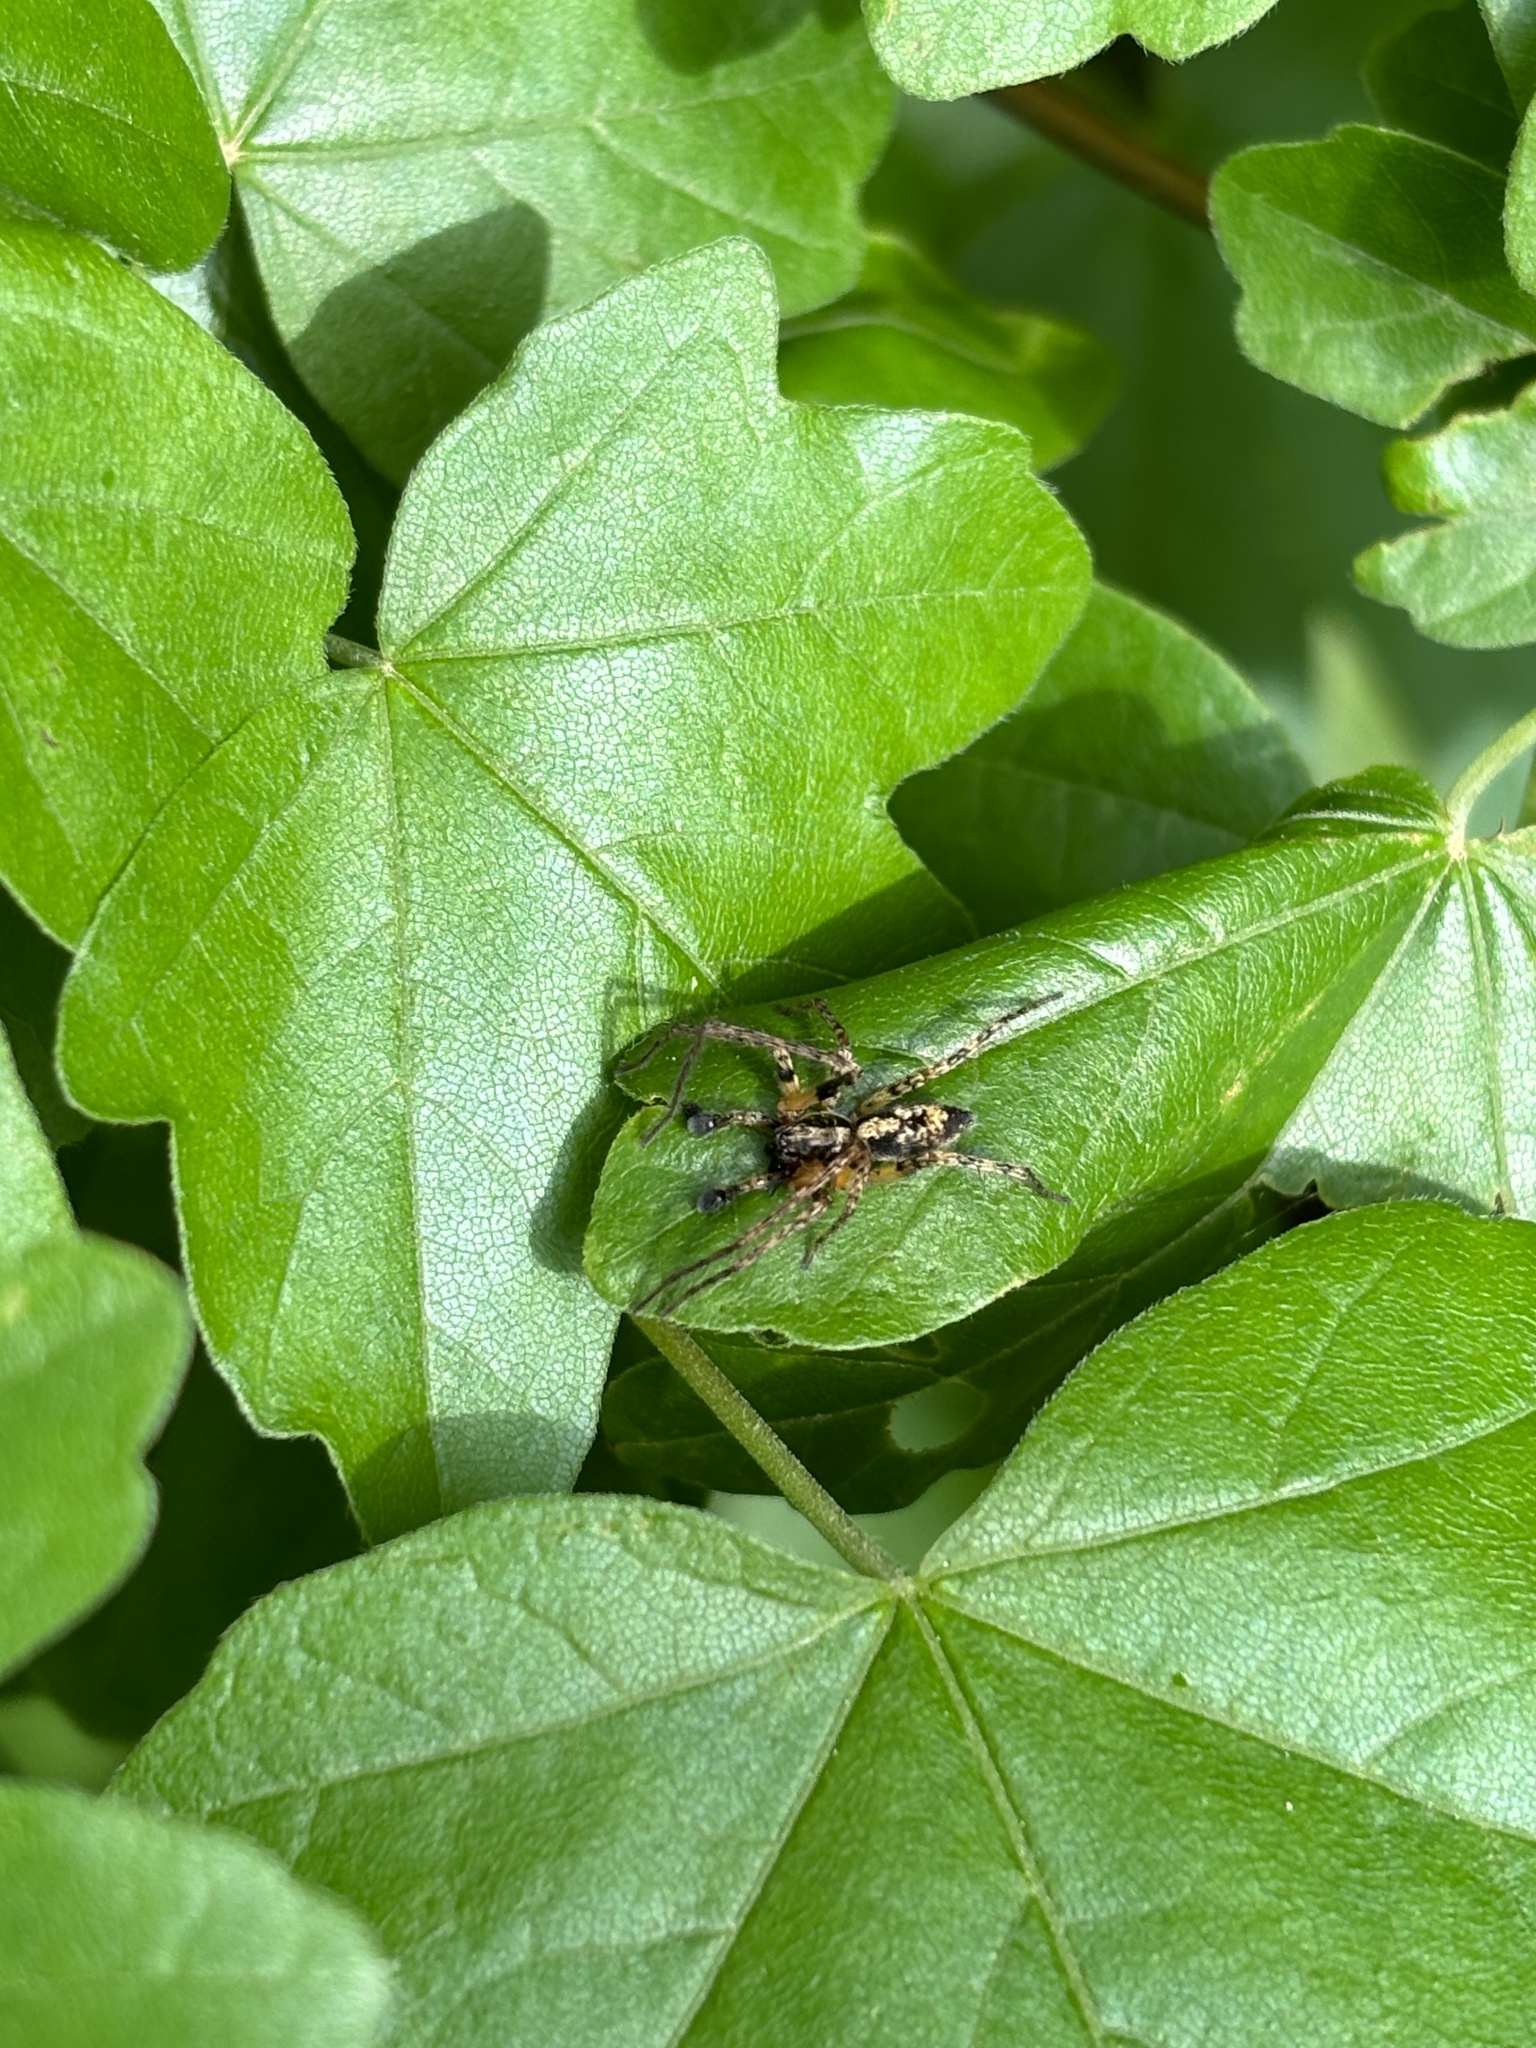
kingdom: Animalia
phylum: Arthropoda
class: Arachnida
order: Araneae
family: Anyphaenidae
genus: Anyphaena
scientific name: Anyphaena accentuata
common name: Buzzing spider
